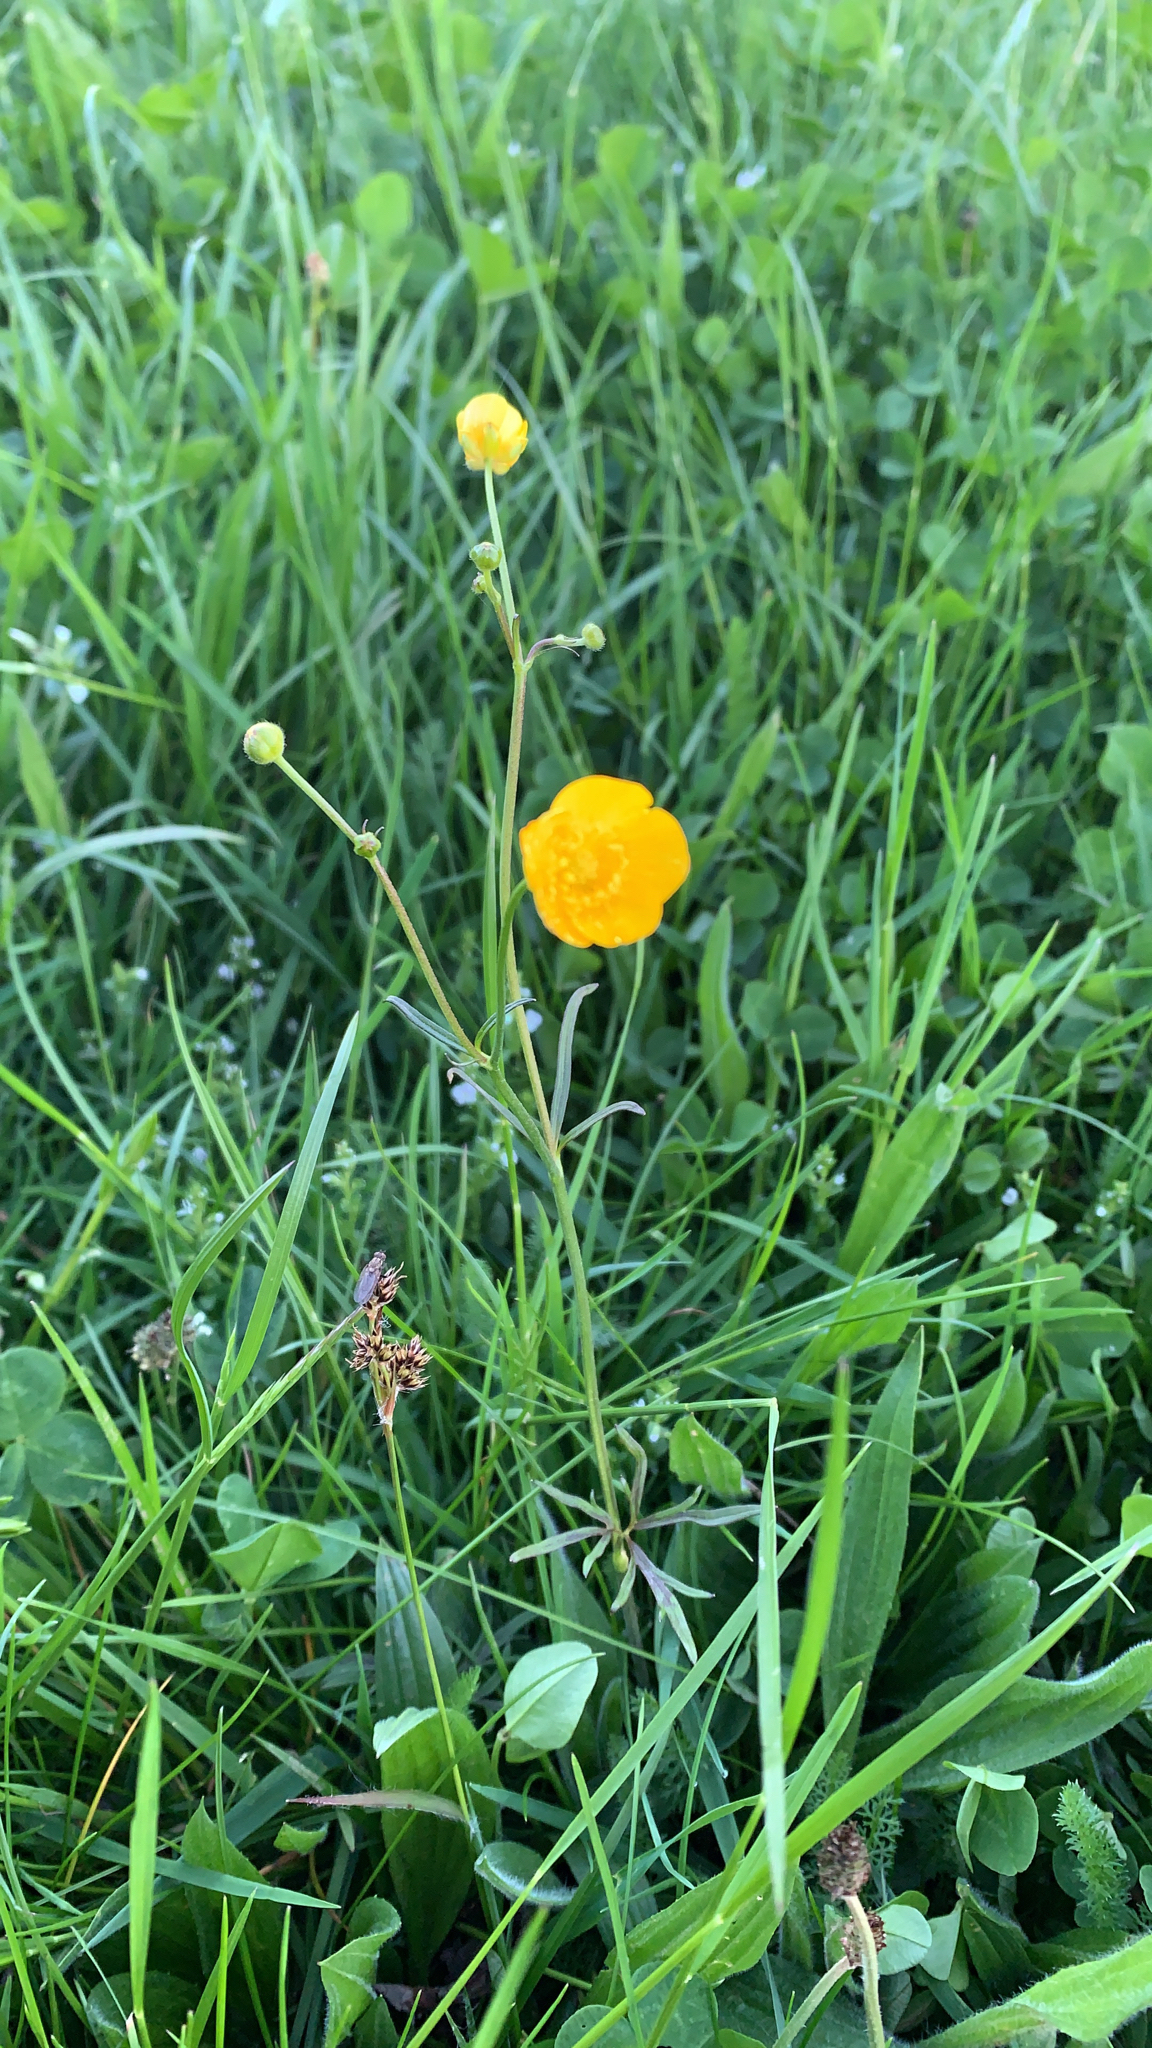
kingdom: Plantae
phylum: Tracheophyta
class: Magnoliopsida
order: Ranunculales
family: Ranunculaceae
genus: Ranunculus
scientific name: Ranunculus acris
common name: Meadow buttercup
